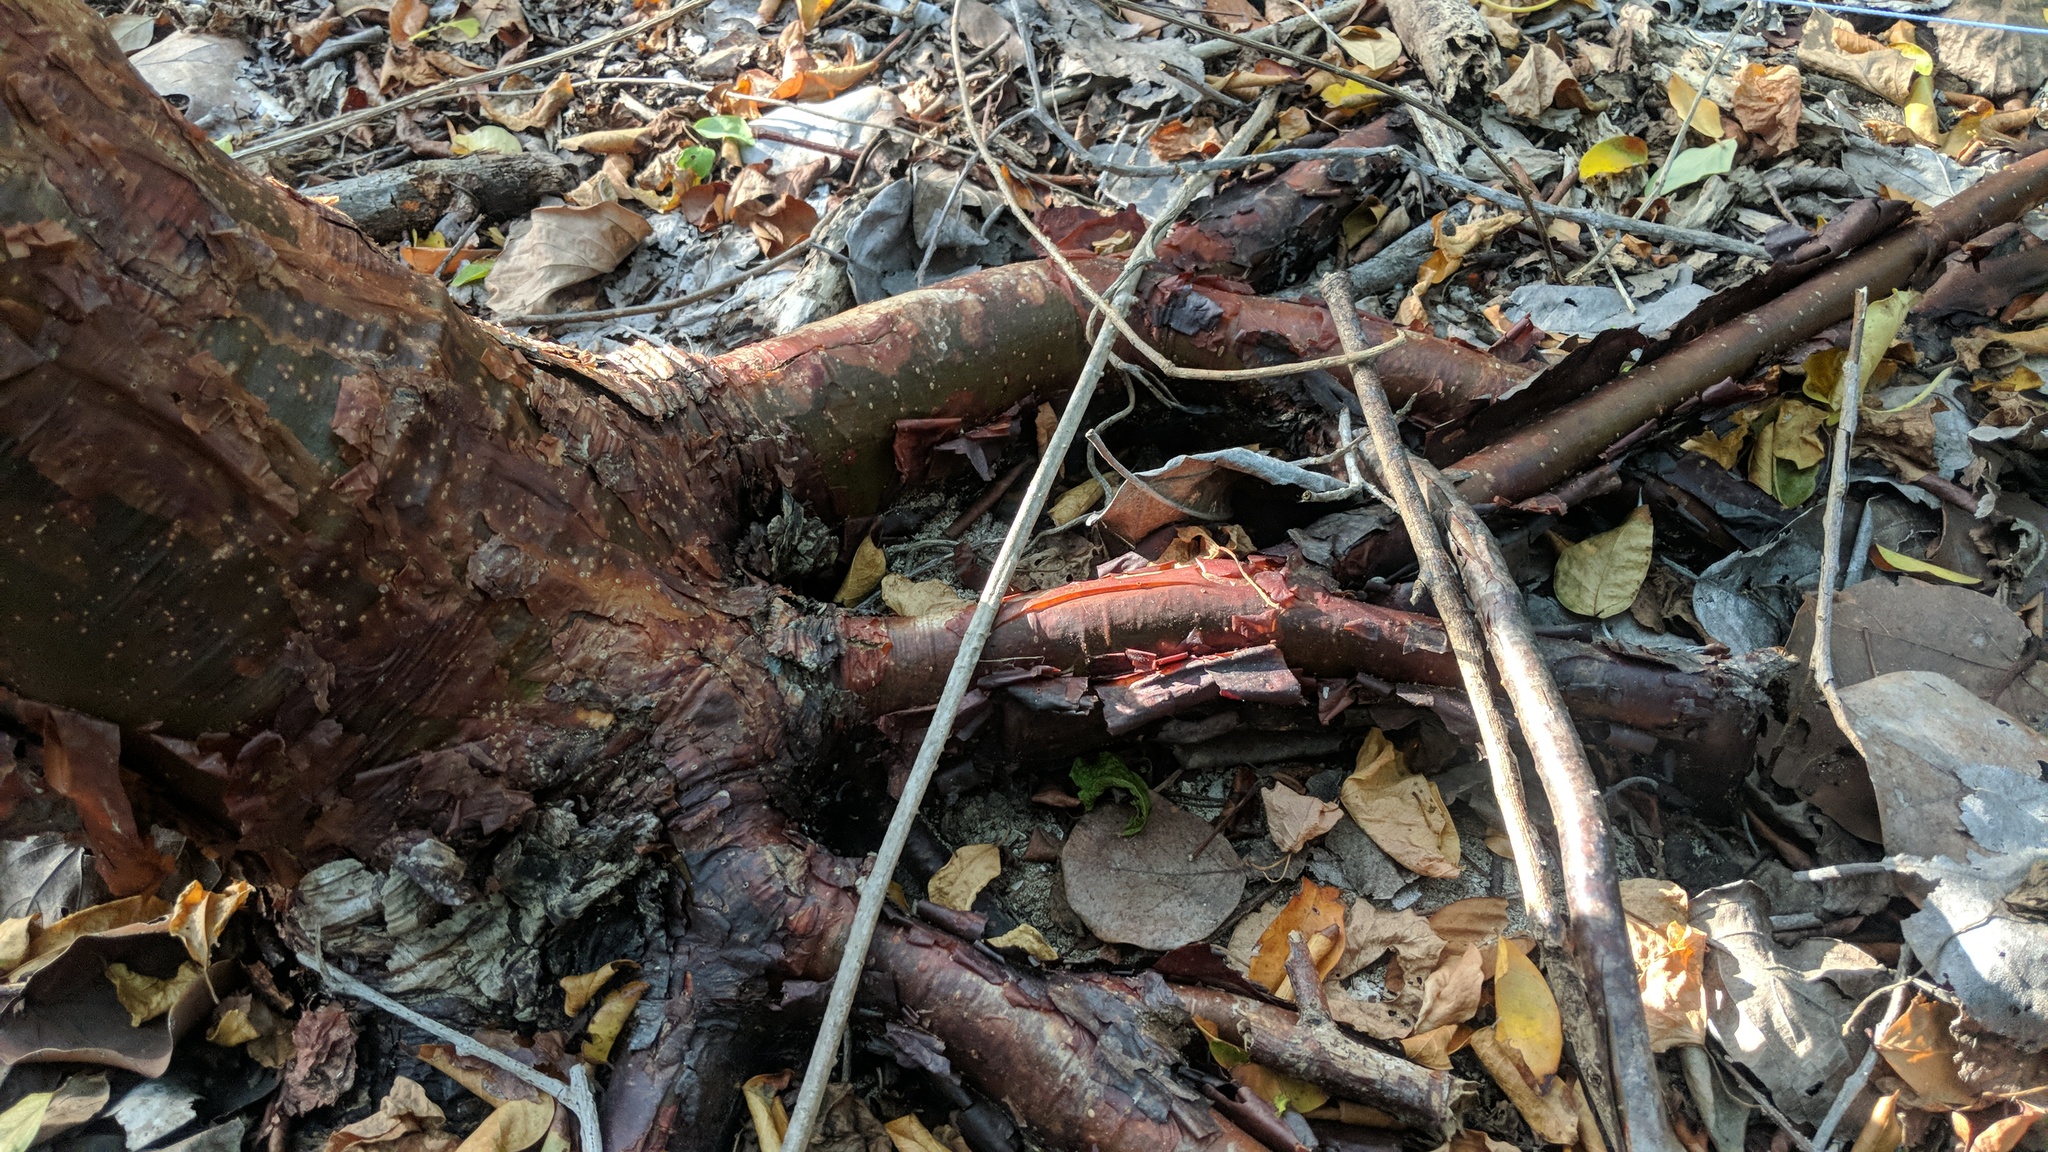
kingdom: Plantae
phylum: Tracheophyta
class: Magnoliopsida
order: Sapindales
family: Burseraceae
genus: Bursera
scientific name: Bursera simaruba
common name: Turpentine tree
